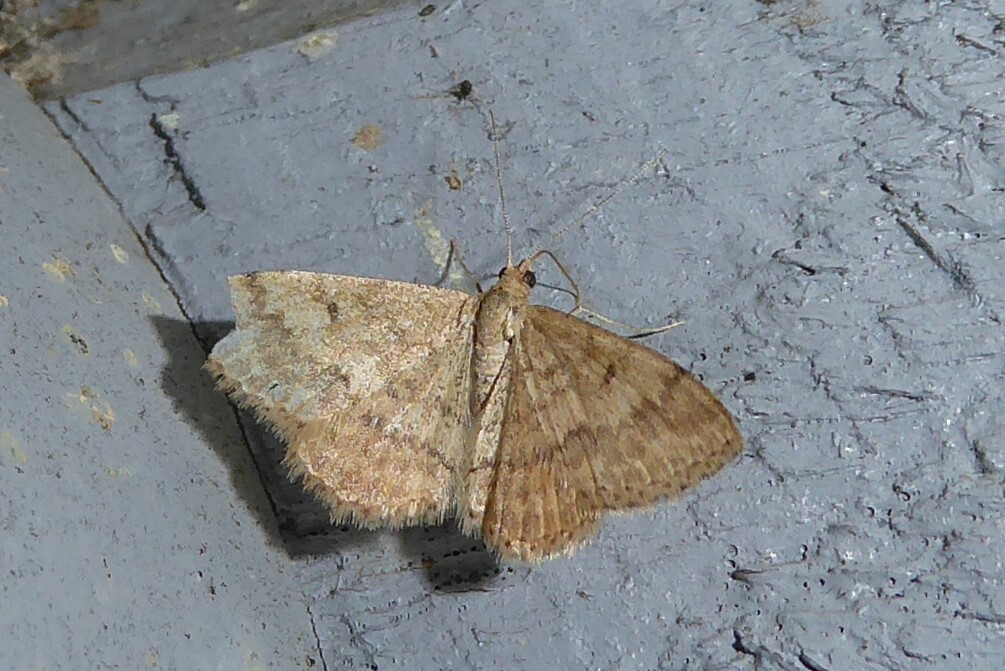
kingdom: Animalia
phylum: Arthropoda
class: Insecta
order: Lepidoptera
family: Geometridae
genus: Scopula
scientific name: Scopula rubraria
